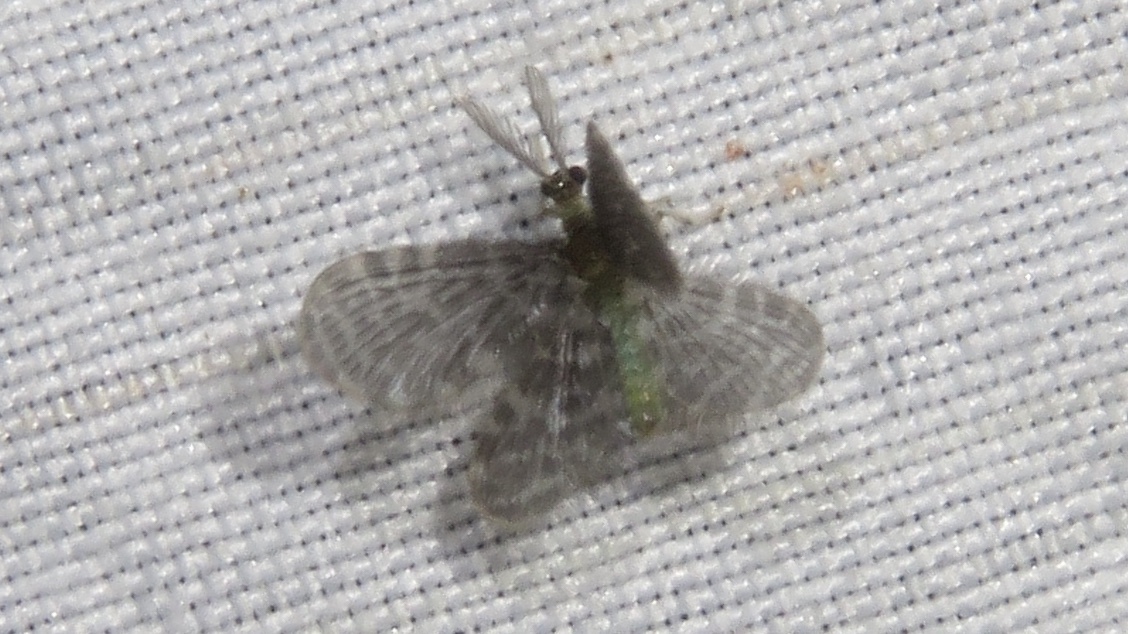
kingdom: Animalia
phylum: Arthropoda
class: Insecta
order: Neuroptera
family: Dilaridae
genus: Nallachius
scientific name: Nallachius americanus
